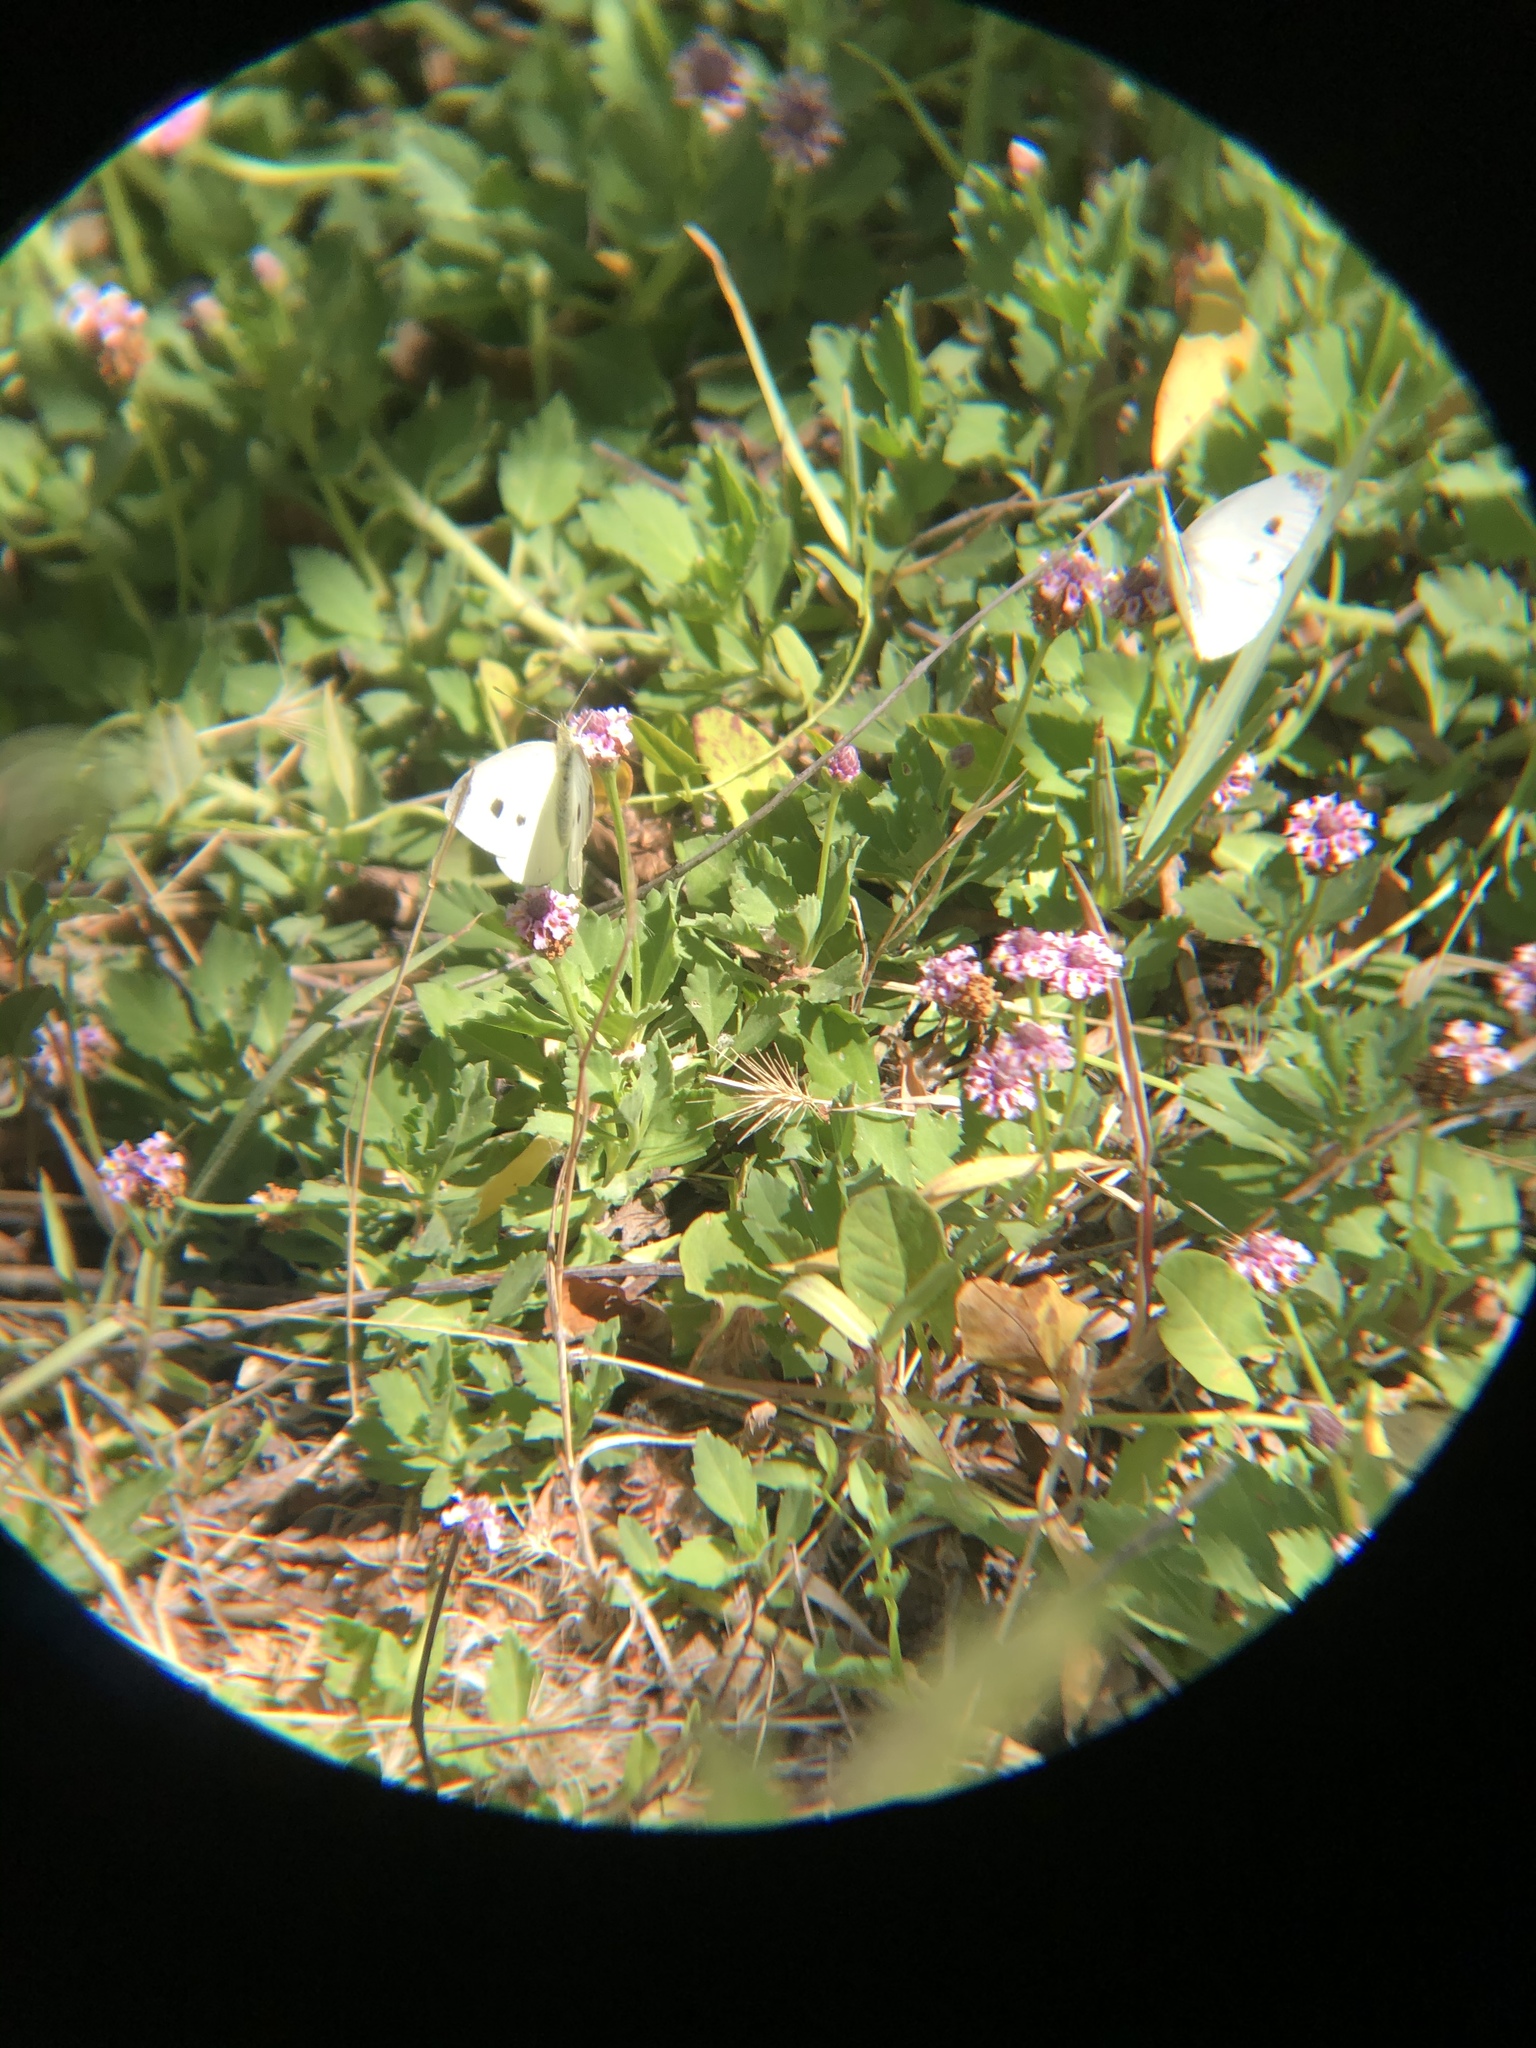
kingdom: Animalia
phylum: Arthropoda
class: Insecta
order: Lepidoptera
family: Pieridae
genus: Pieris
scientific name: Pieris rapae
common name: Small white
